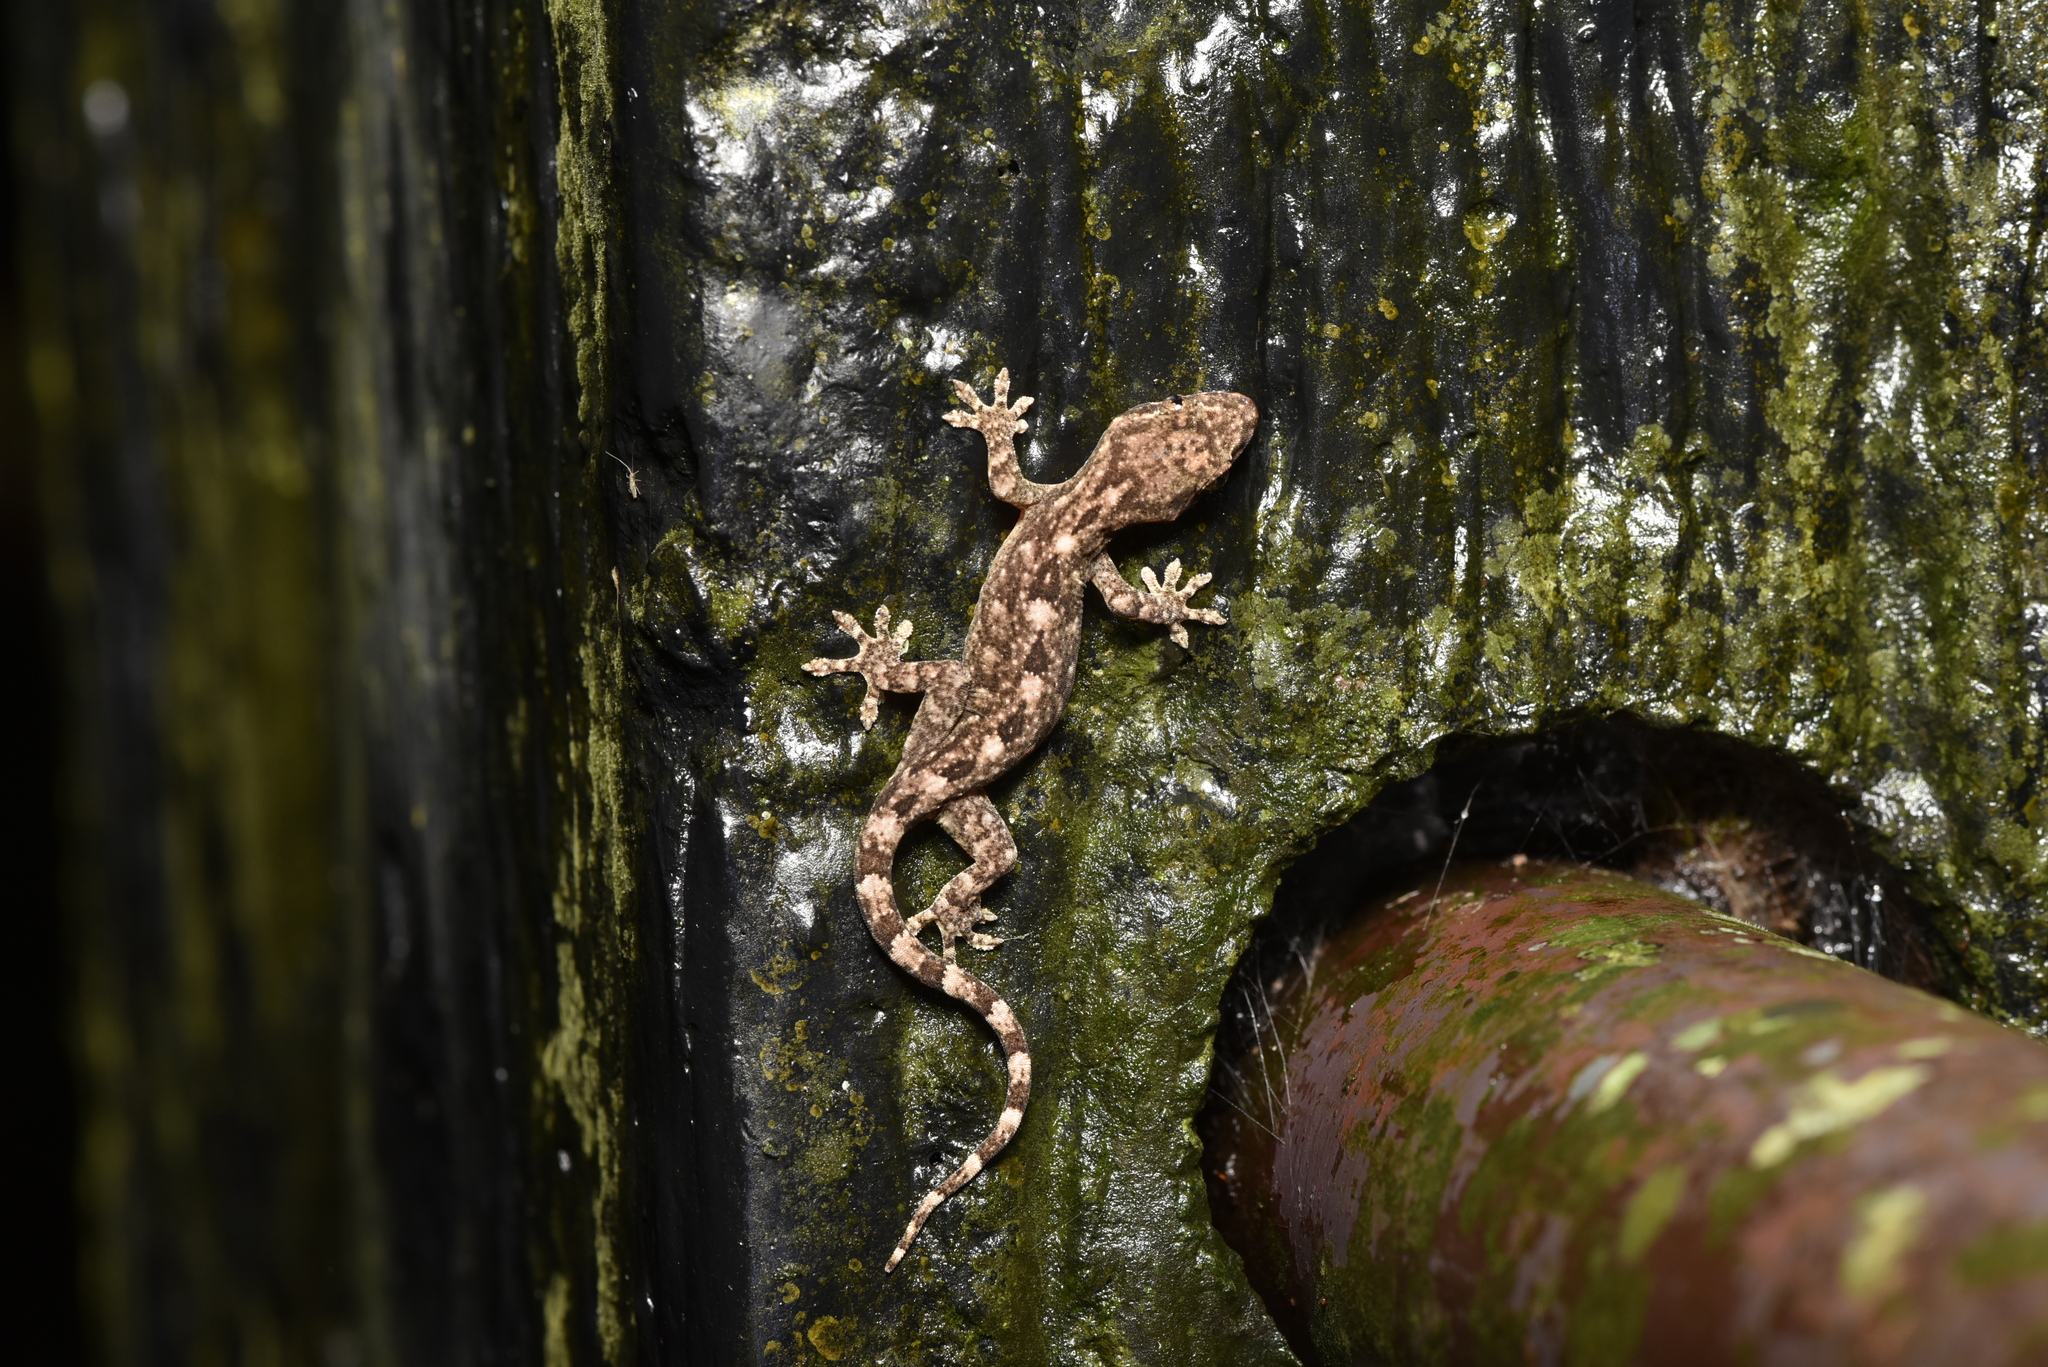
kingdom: Animalia
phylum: Chordata
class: Squamata
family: Gekkonidae
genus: Gekko
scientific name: Gekko hokouensis
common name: Kwangsi gecko
